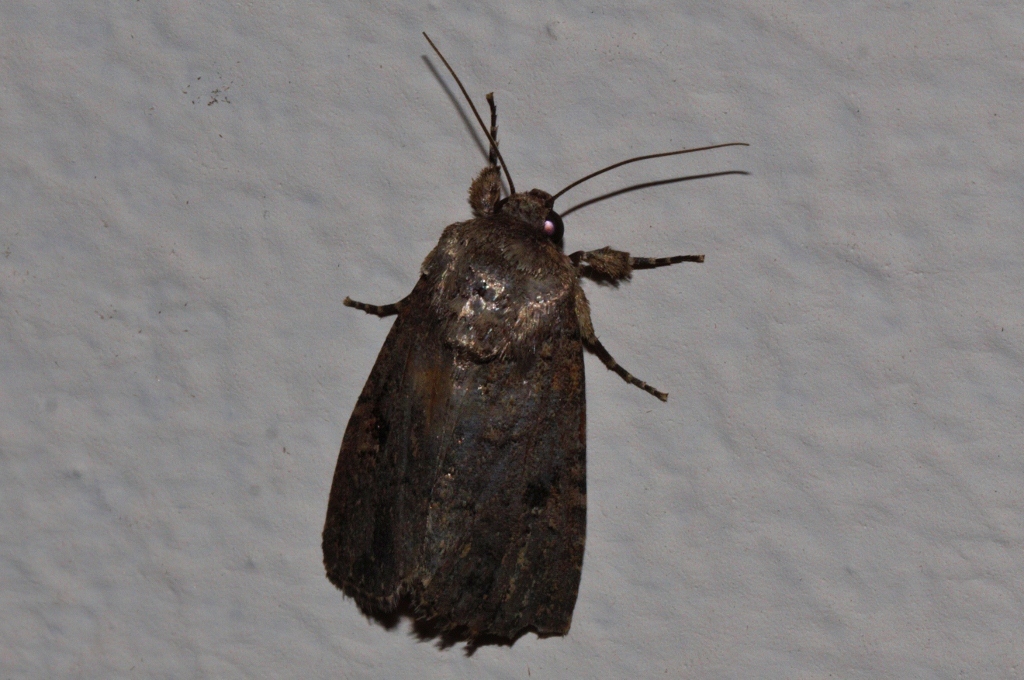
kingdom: Animalia
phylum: Arthropoda
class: Insecta
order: Lepidoptera
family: Noctuidae
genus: Spodoptera
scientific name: Spodoptera cilium
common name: Dark mottled willow
